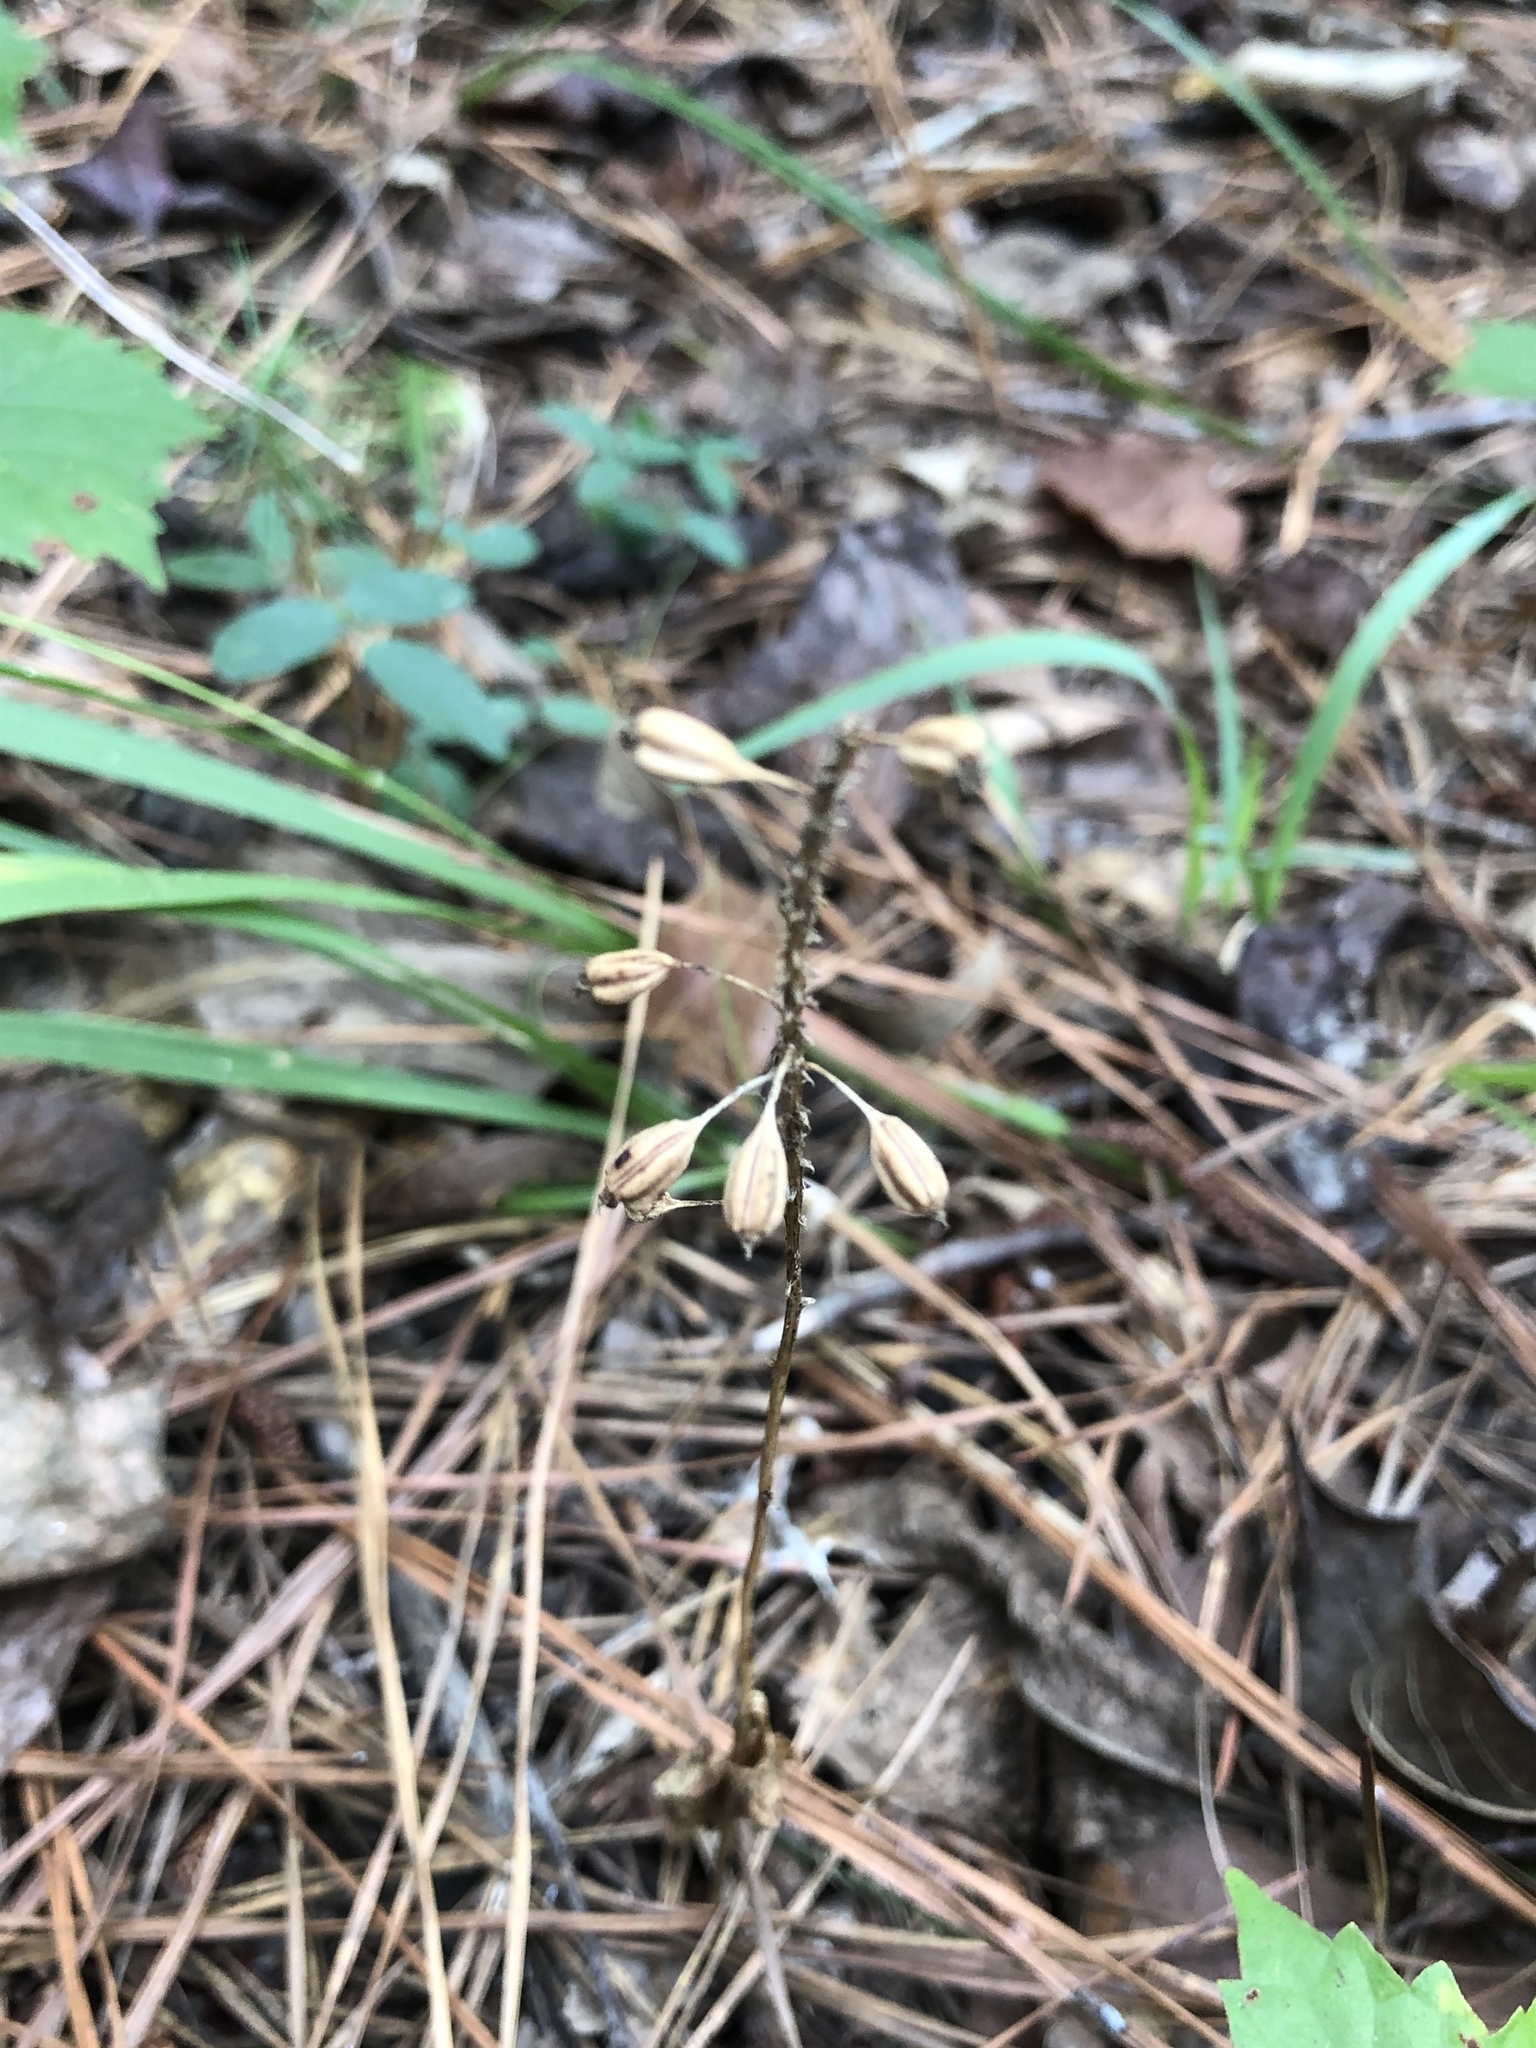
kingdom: Plantae
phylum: Tracheophyta
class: Liliopsida
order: Asparagales
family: Orchidaceae
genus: Malaxis
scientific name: Malaxis unifolia
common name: Green adder's-mouth
